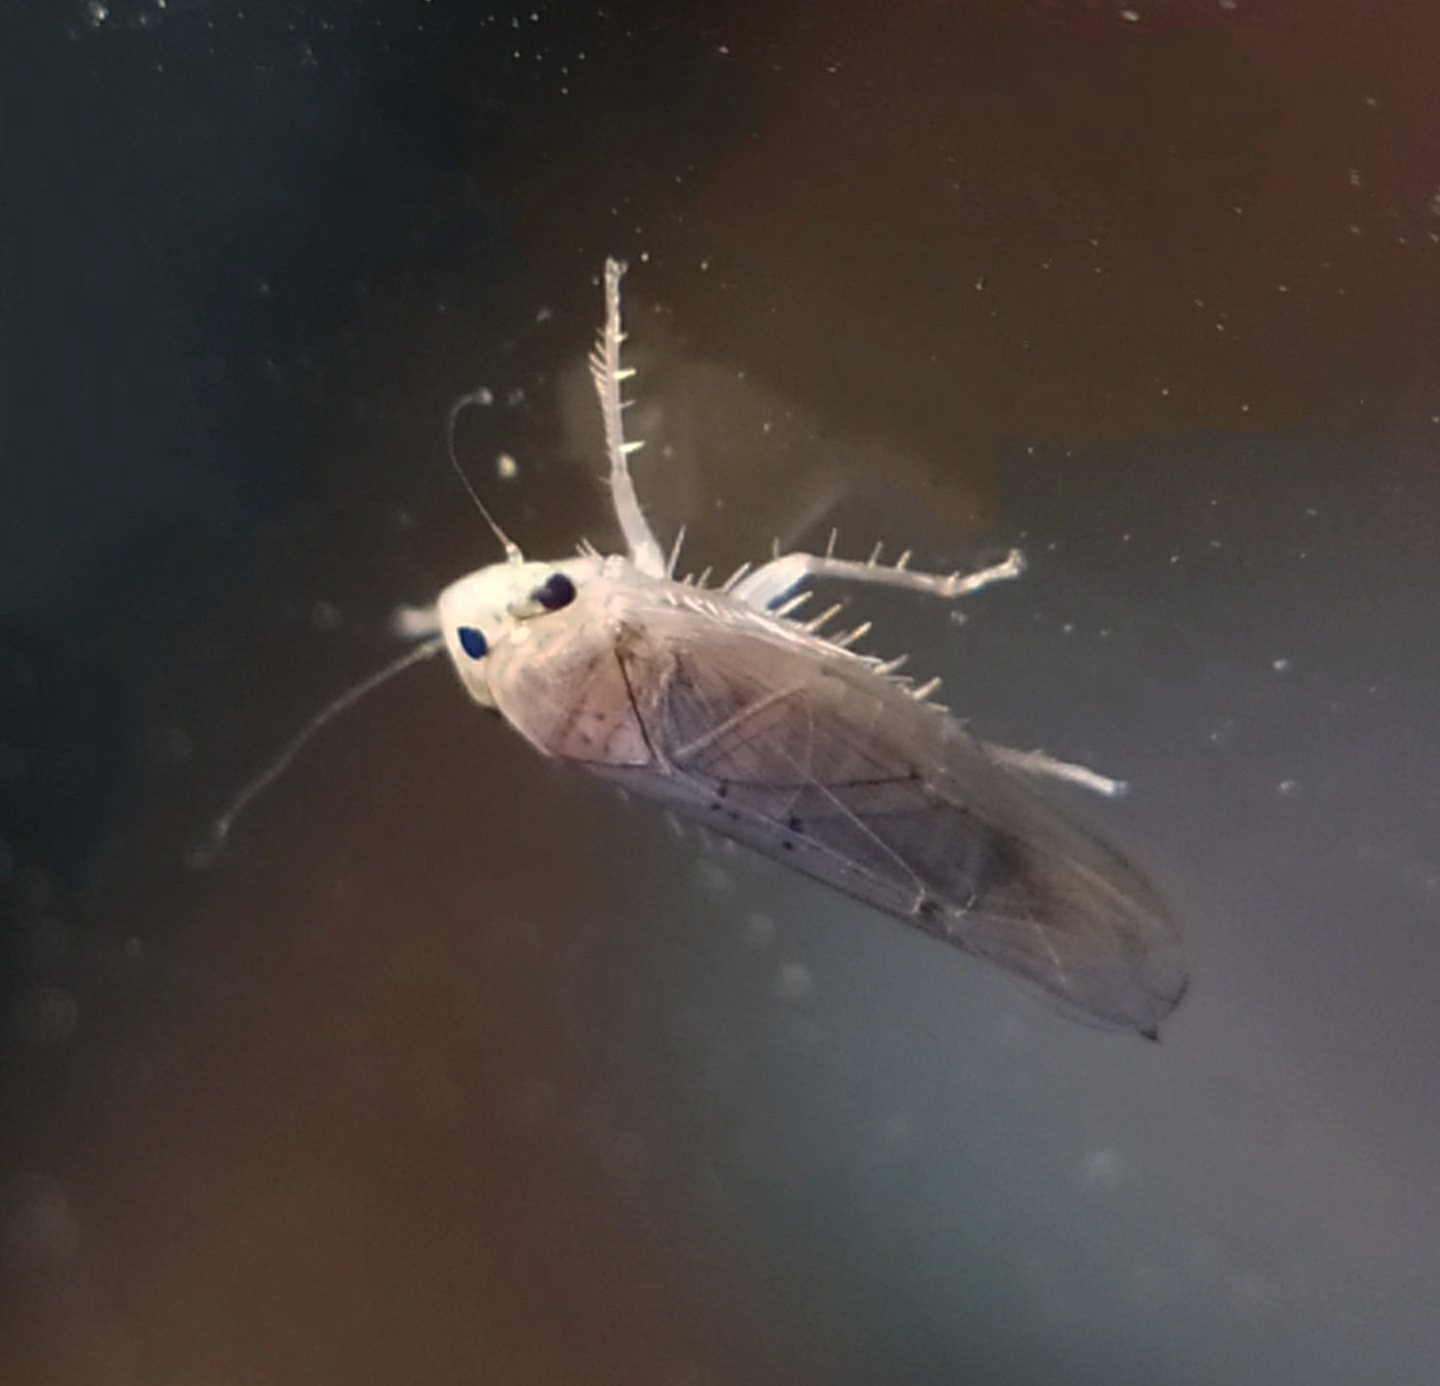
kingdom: Animalia
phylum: Arthropoda
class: Insecta
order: Hemiptera
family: Cicadellidae
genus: Phlogotettix
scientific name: Phlogotettix cyclops
